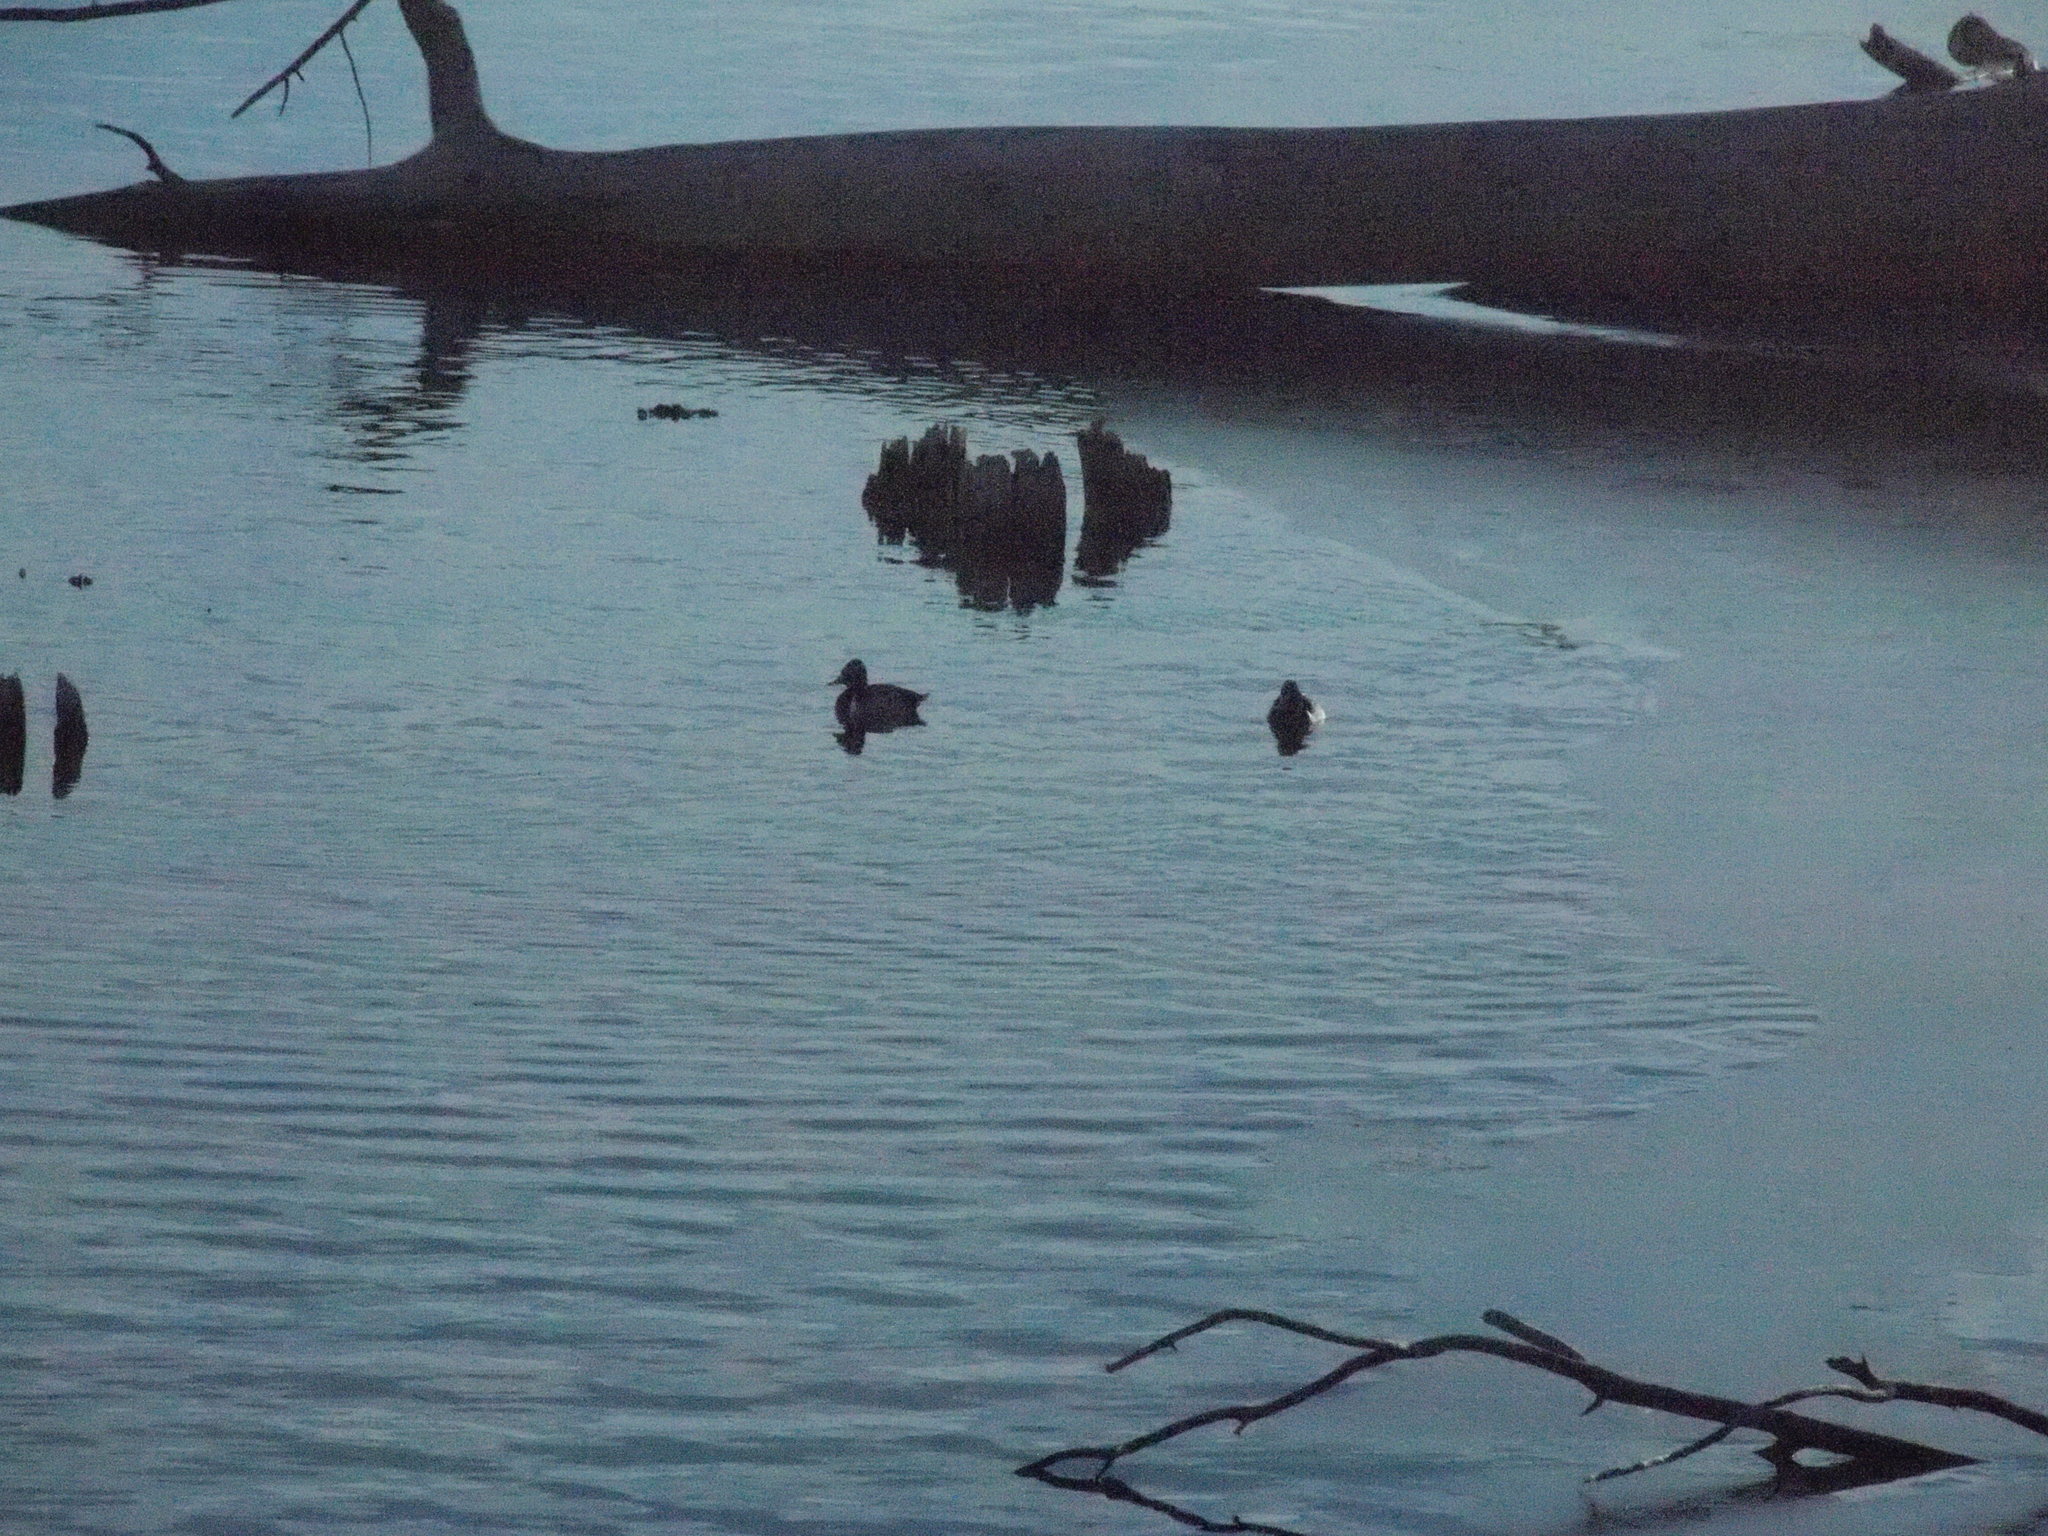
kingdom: Animalia
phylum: Chordata
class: Aves
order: Anseriformes
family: Anatidae
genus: Aythya
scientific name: Aythya collaris
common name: Ring-necked duck
